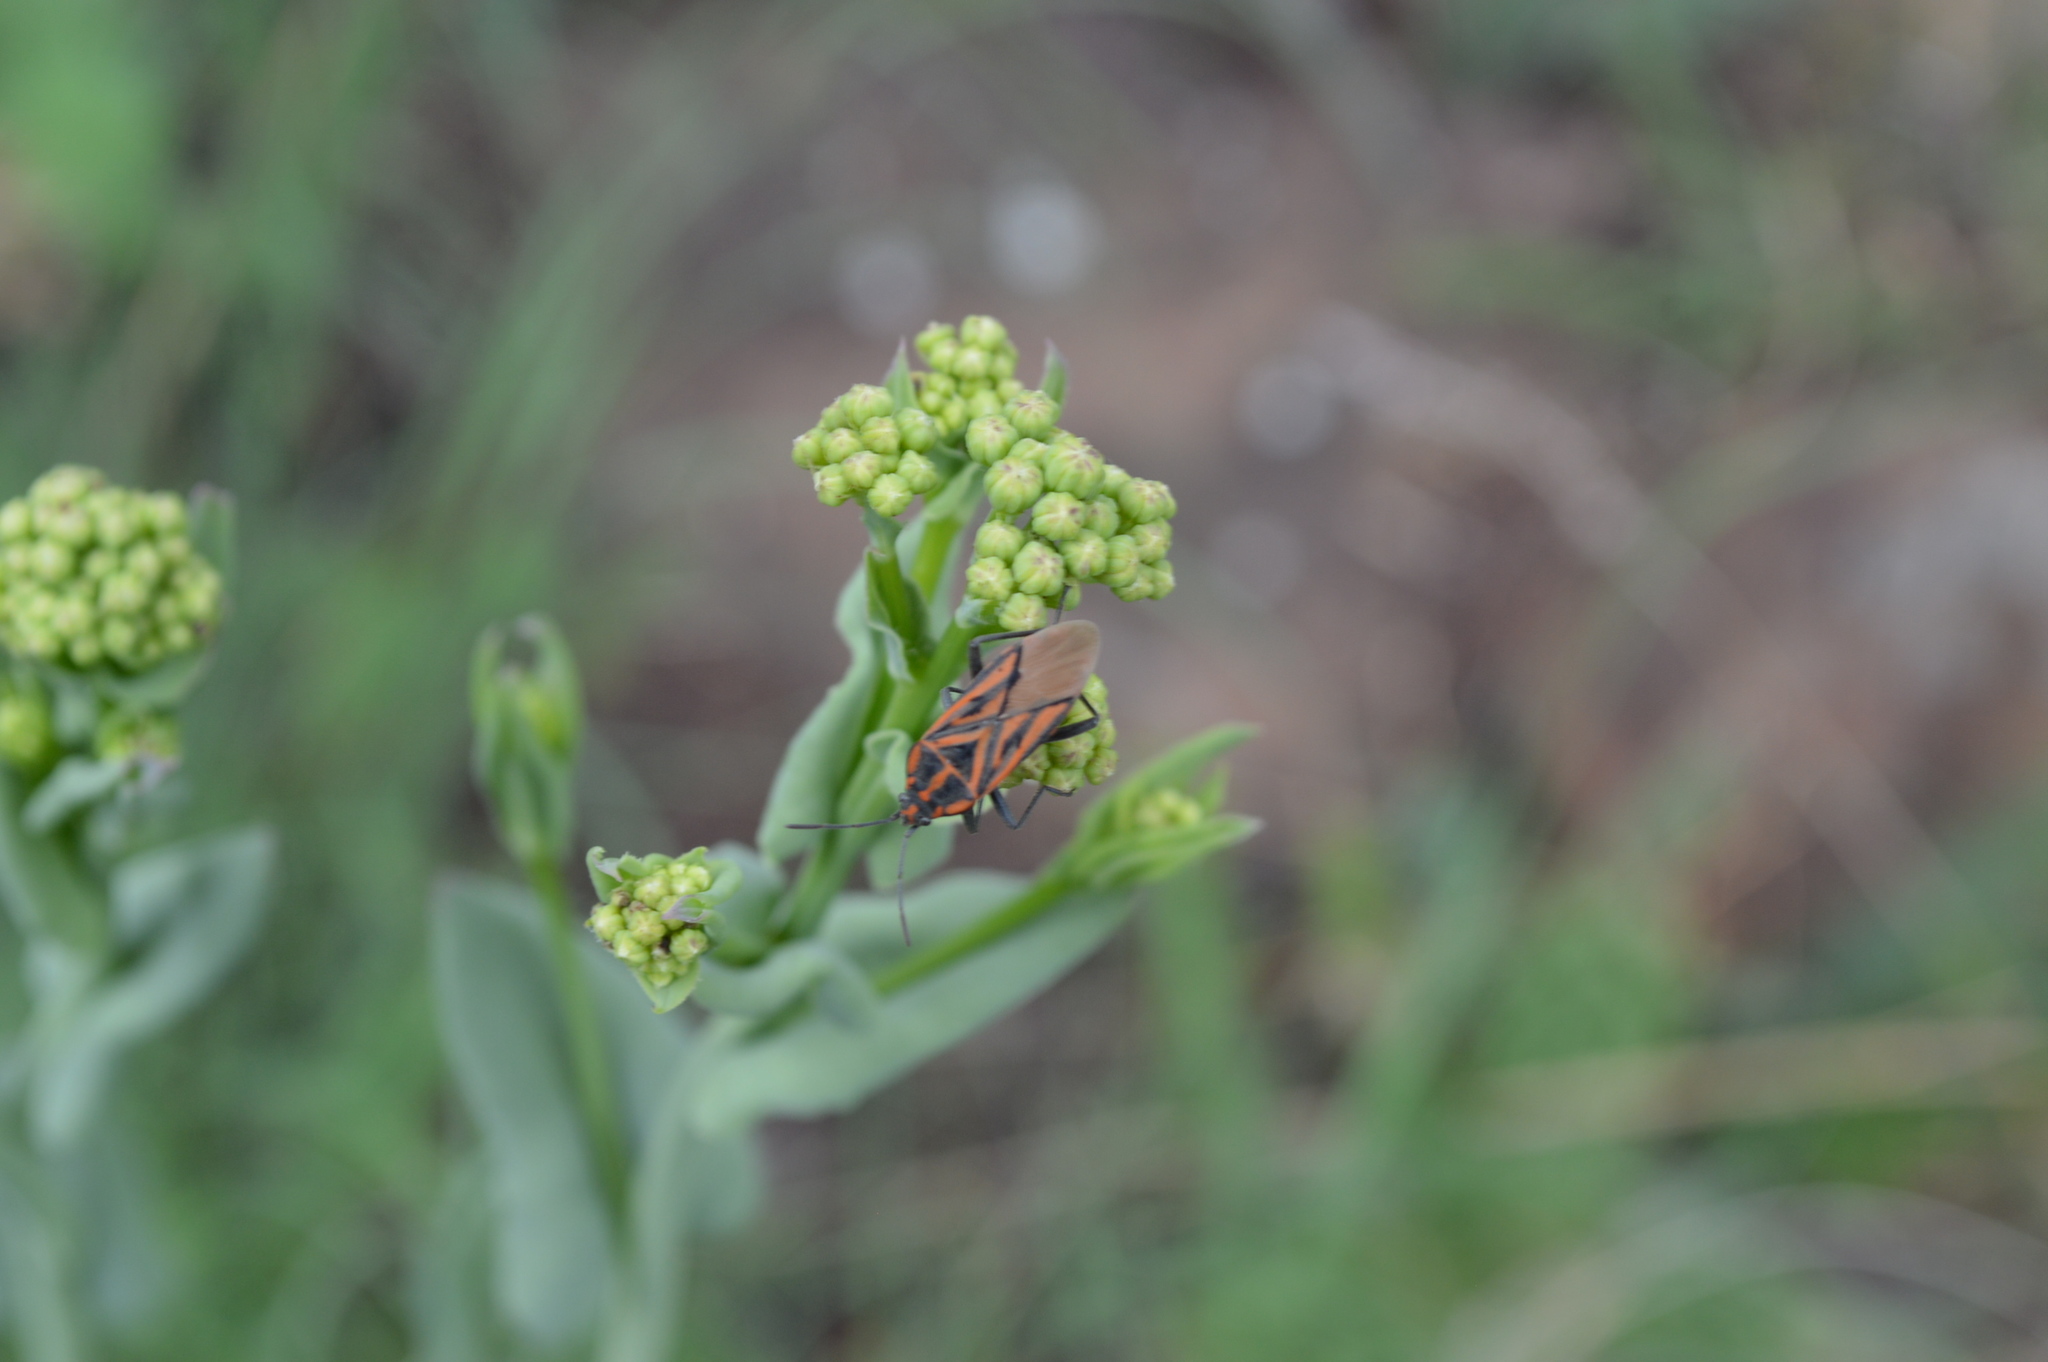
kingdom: Animalia
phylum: Arthropoda
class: Insecta
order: Hemiptera
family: Lygaeidae
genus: Spilostethus
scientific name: Spilostethus rivularis
